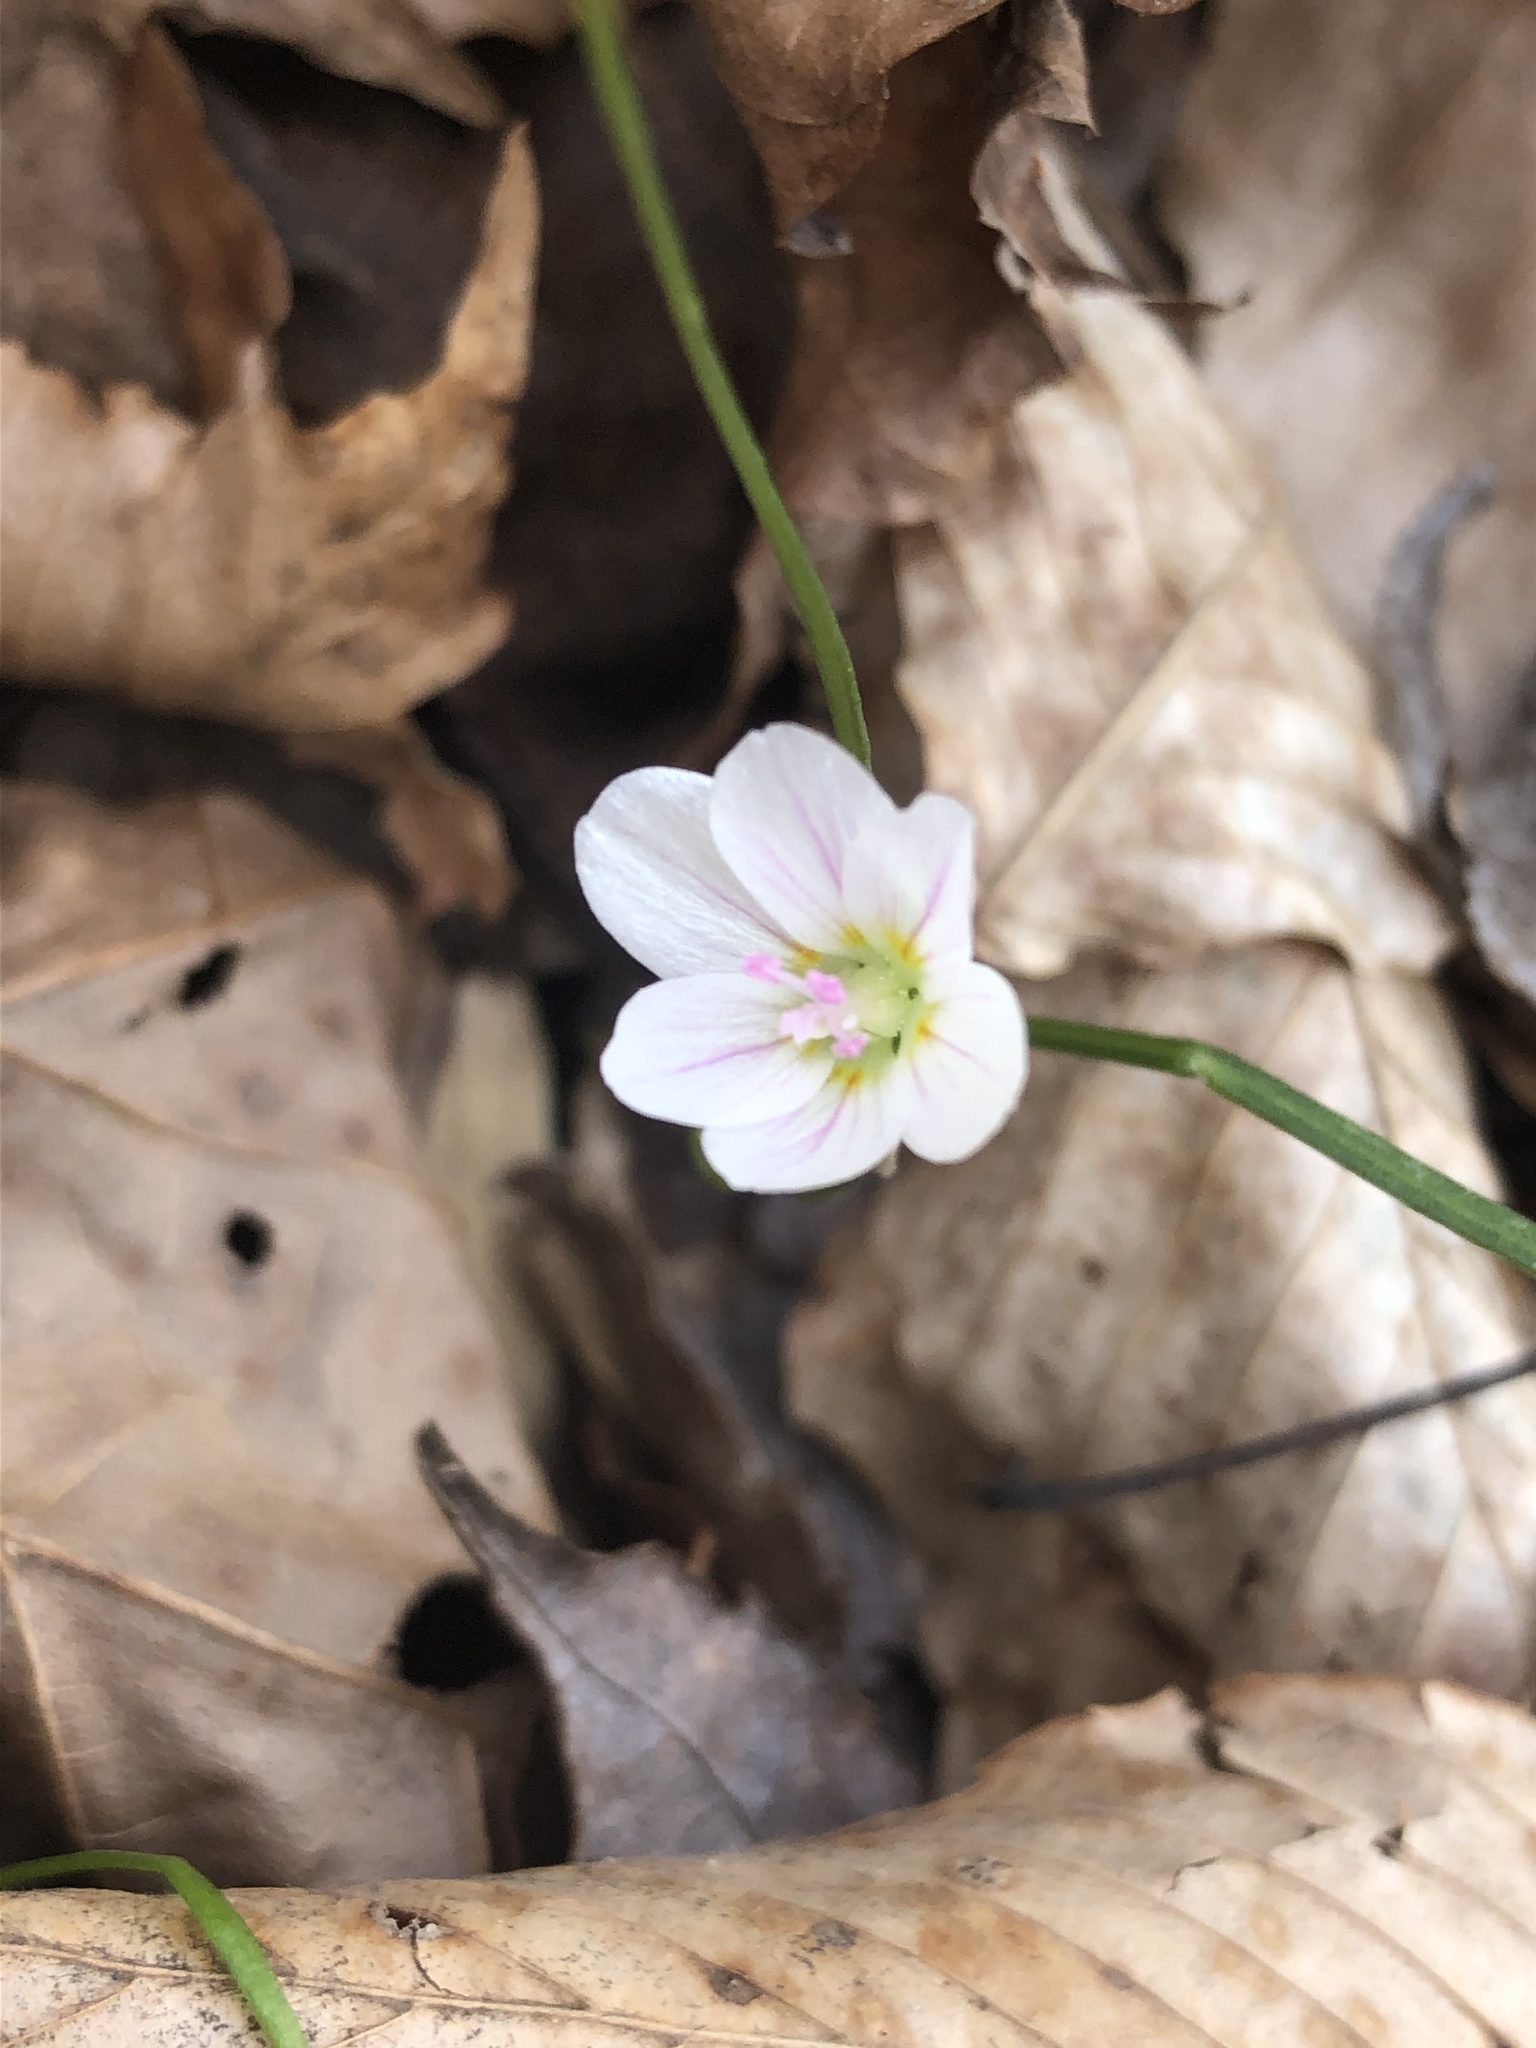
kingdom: Plantae
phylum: Tracheophyta
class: Magnoliopsida
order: Caryophyllales
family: Montiaceae
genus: Claytonia
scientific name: Claytonia virginica
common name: Virginia springbeauty
